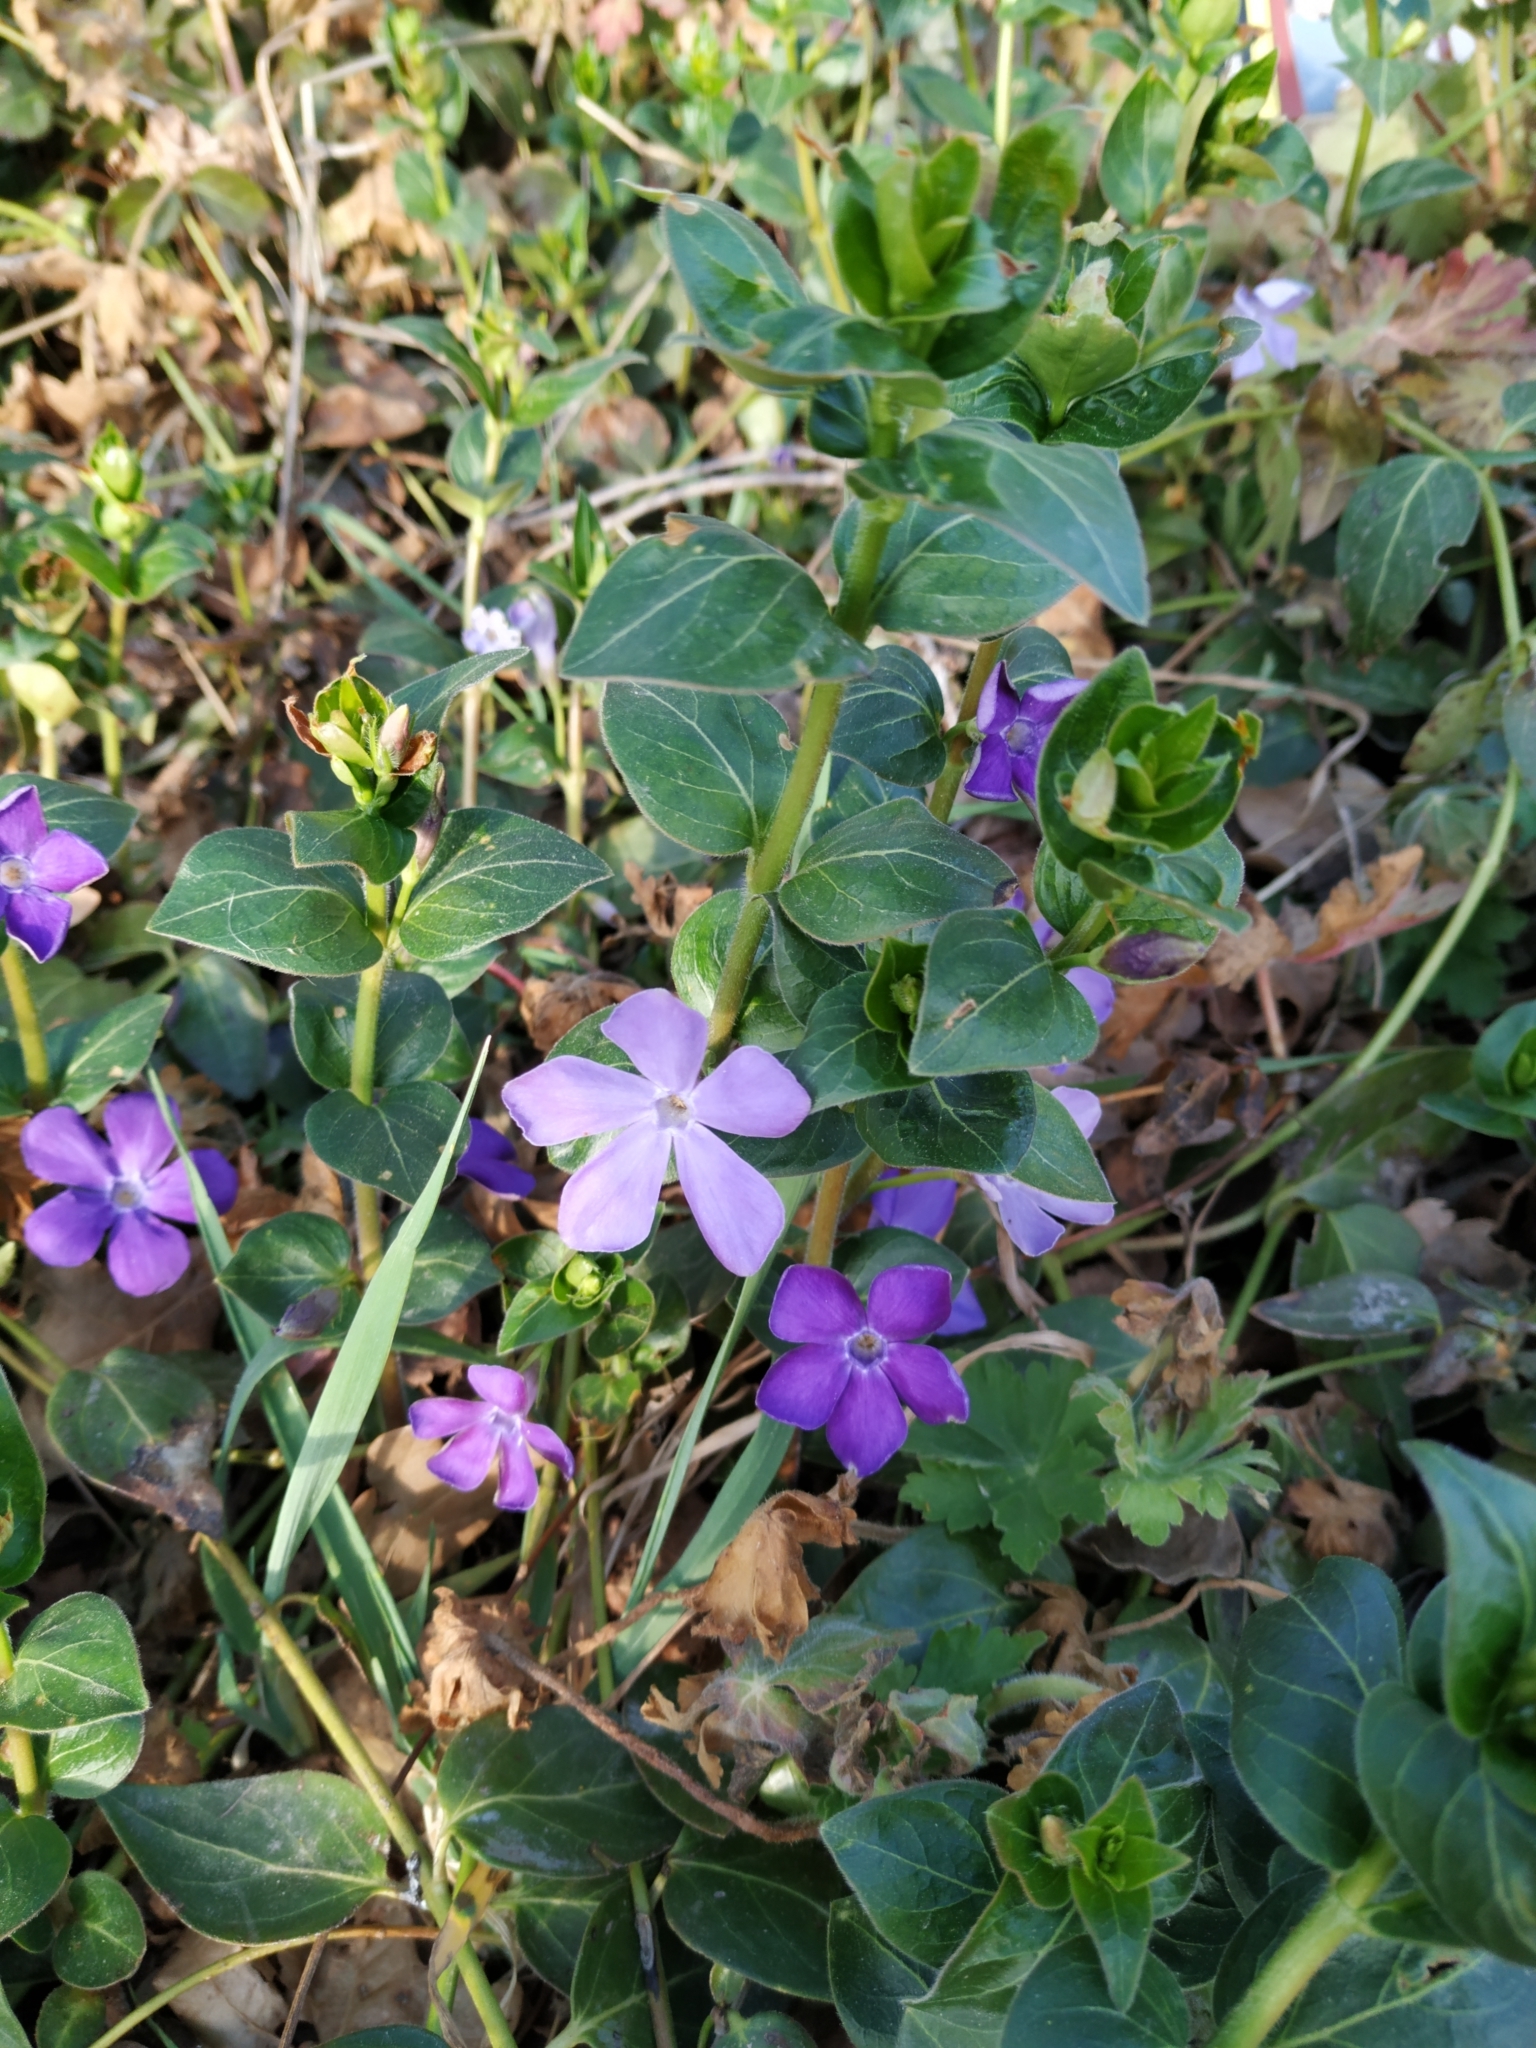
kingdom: Plantae
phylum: Tracheophyta
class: Magnoliopsida
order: Gentianales
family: Apocynaceae
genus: Vinca
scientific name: Vinca major
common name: Greater periwinkle
